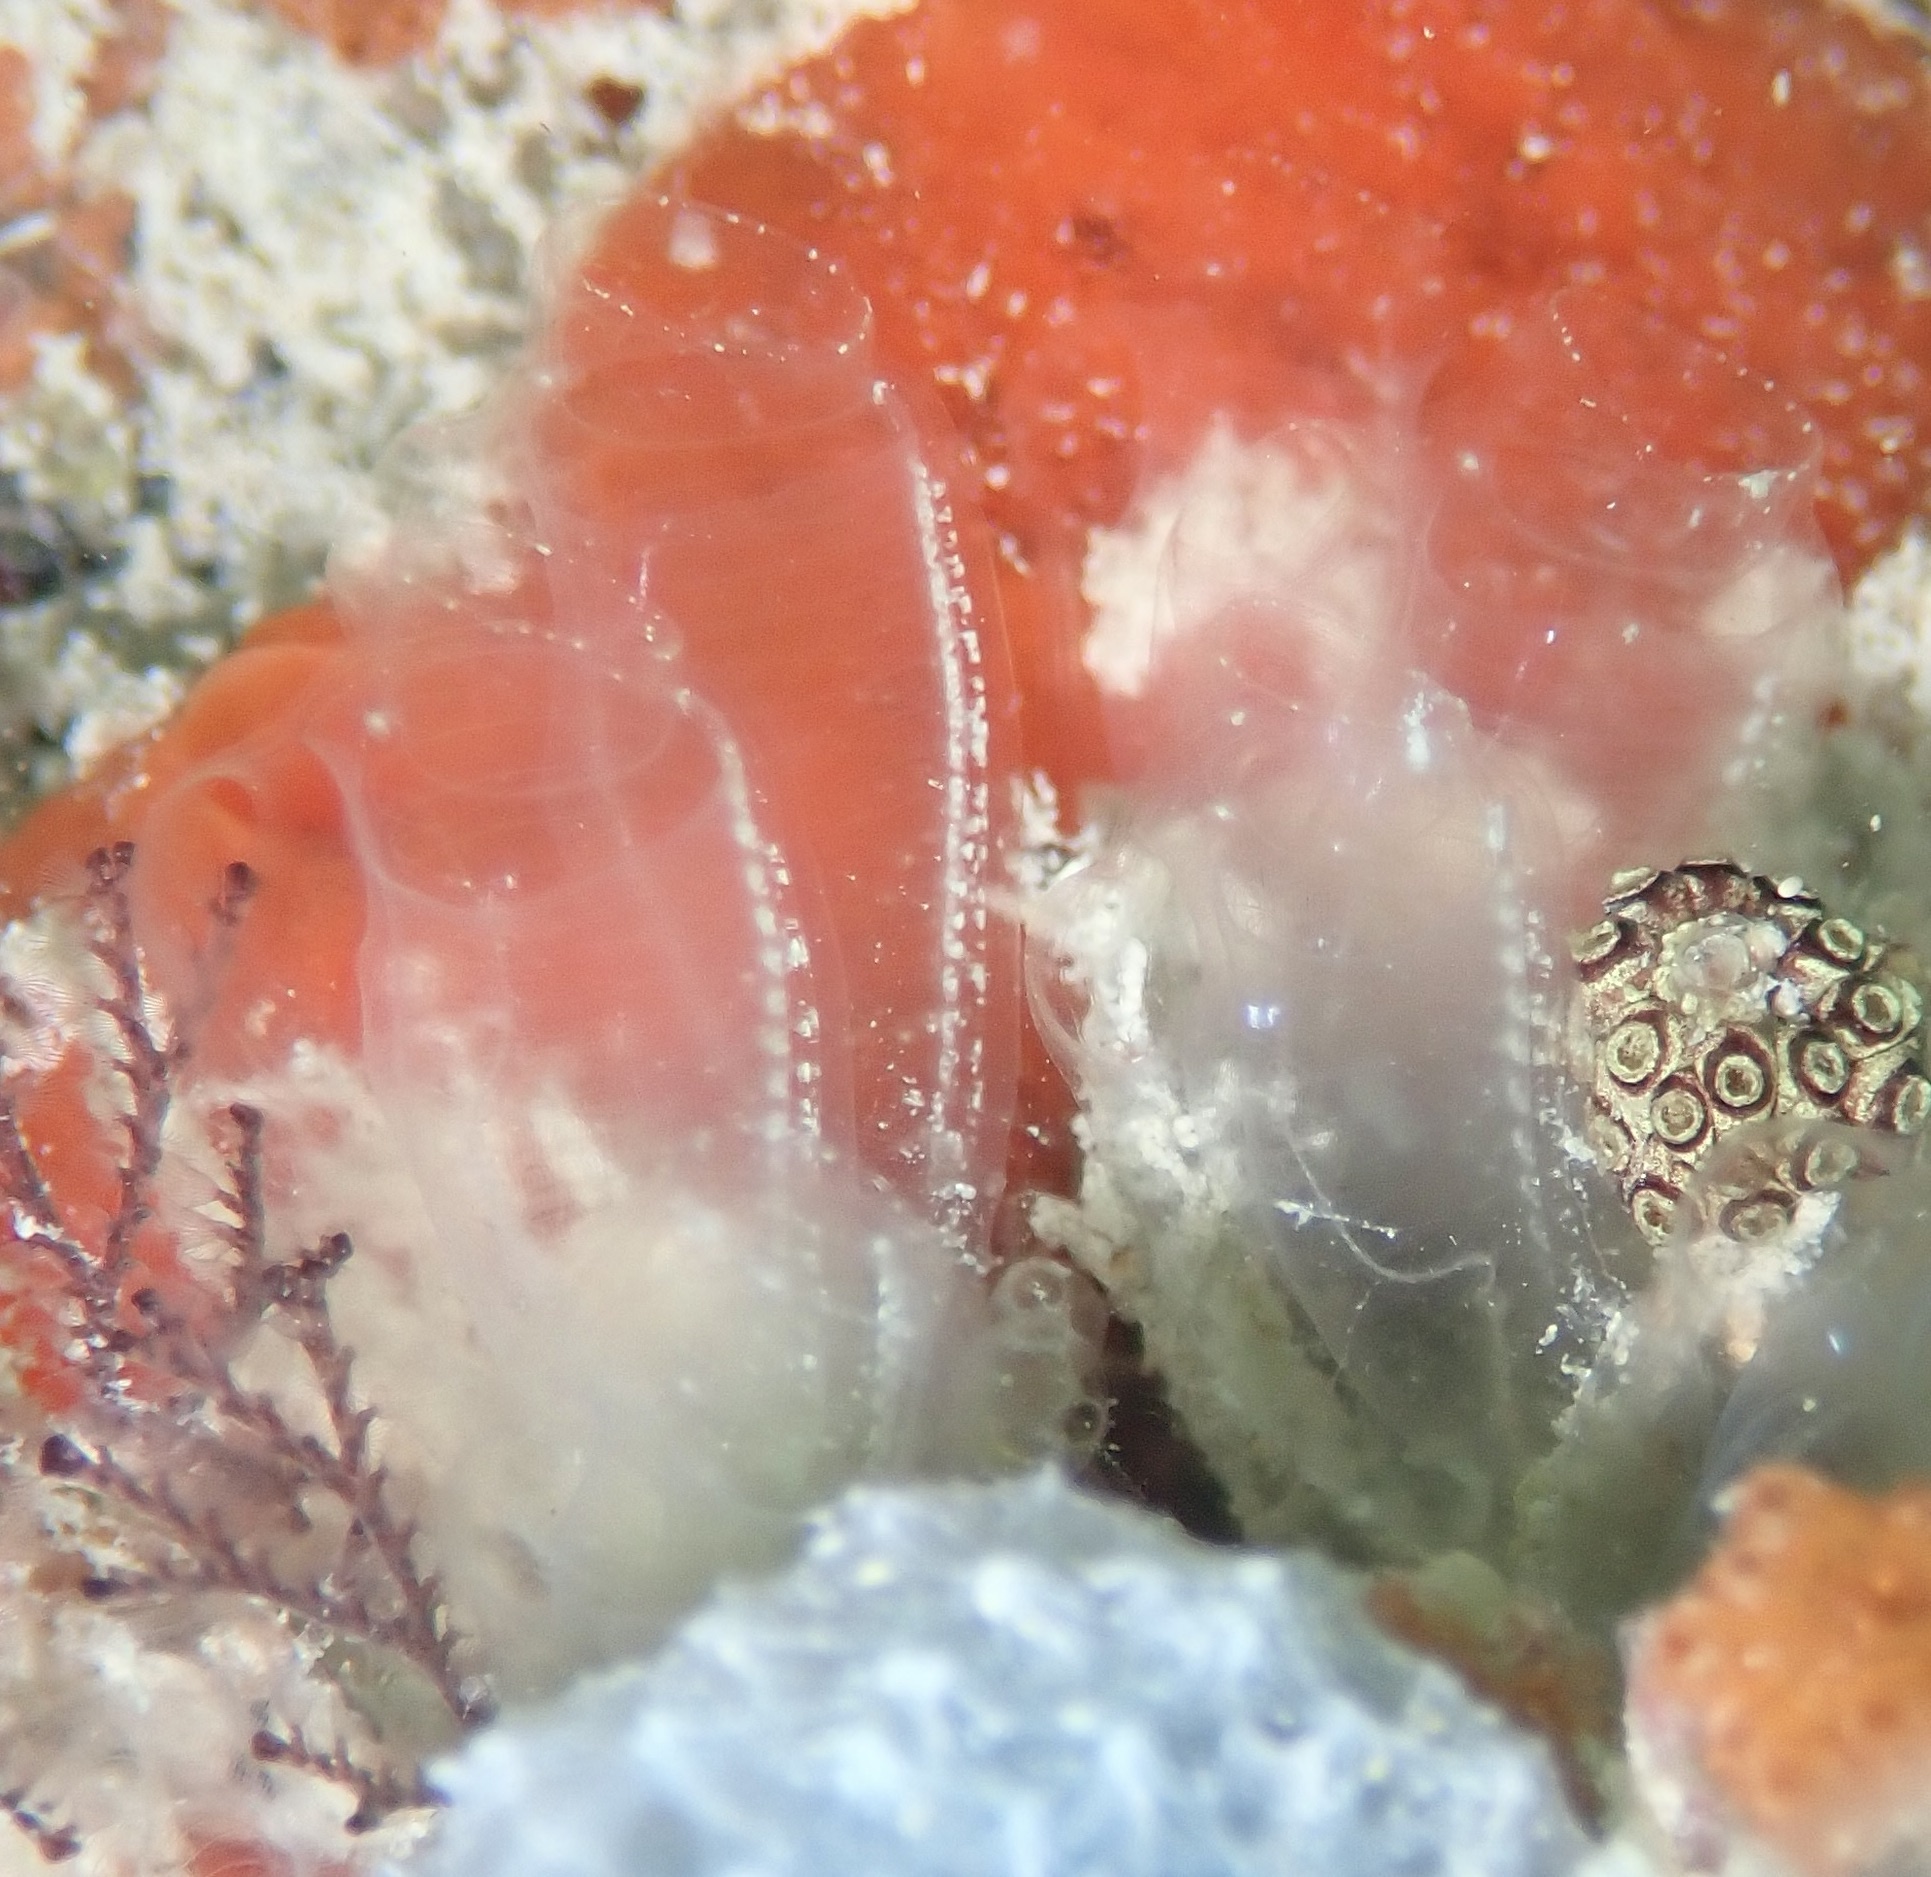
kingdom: Animalia
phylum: Chordata
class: Ascidiacea
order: Aplousobranchia
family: Clavelinidae
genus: Clavelina
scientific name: Clavelina oblonga
